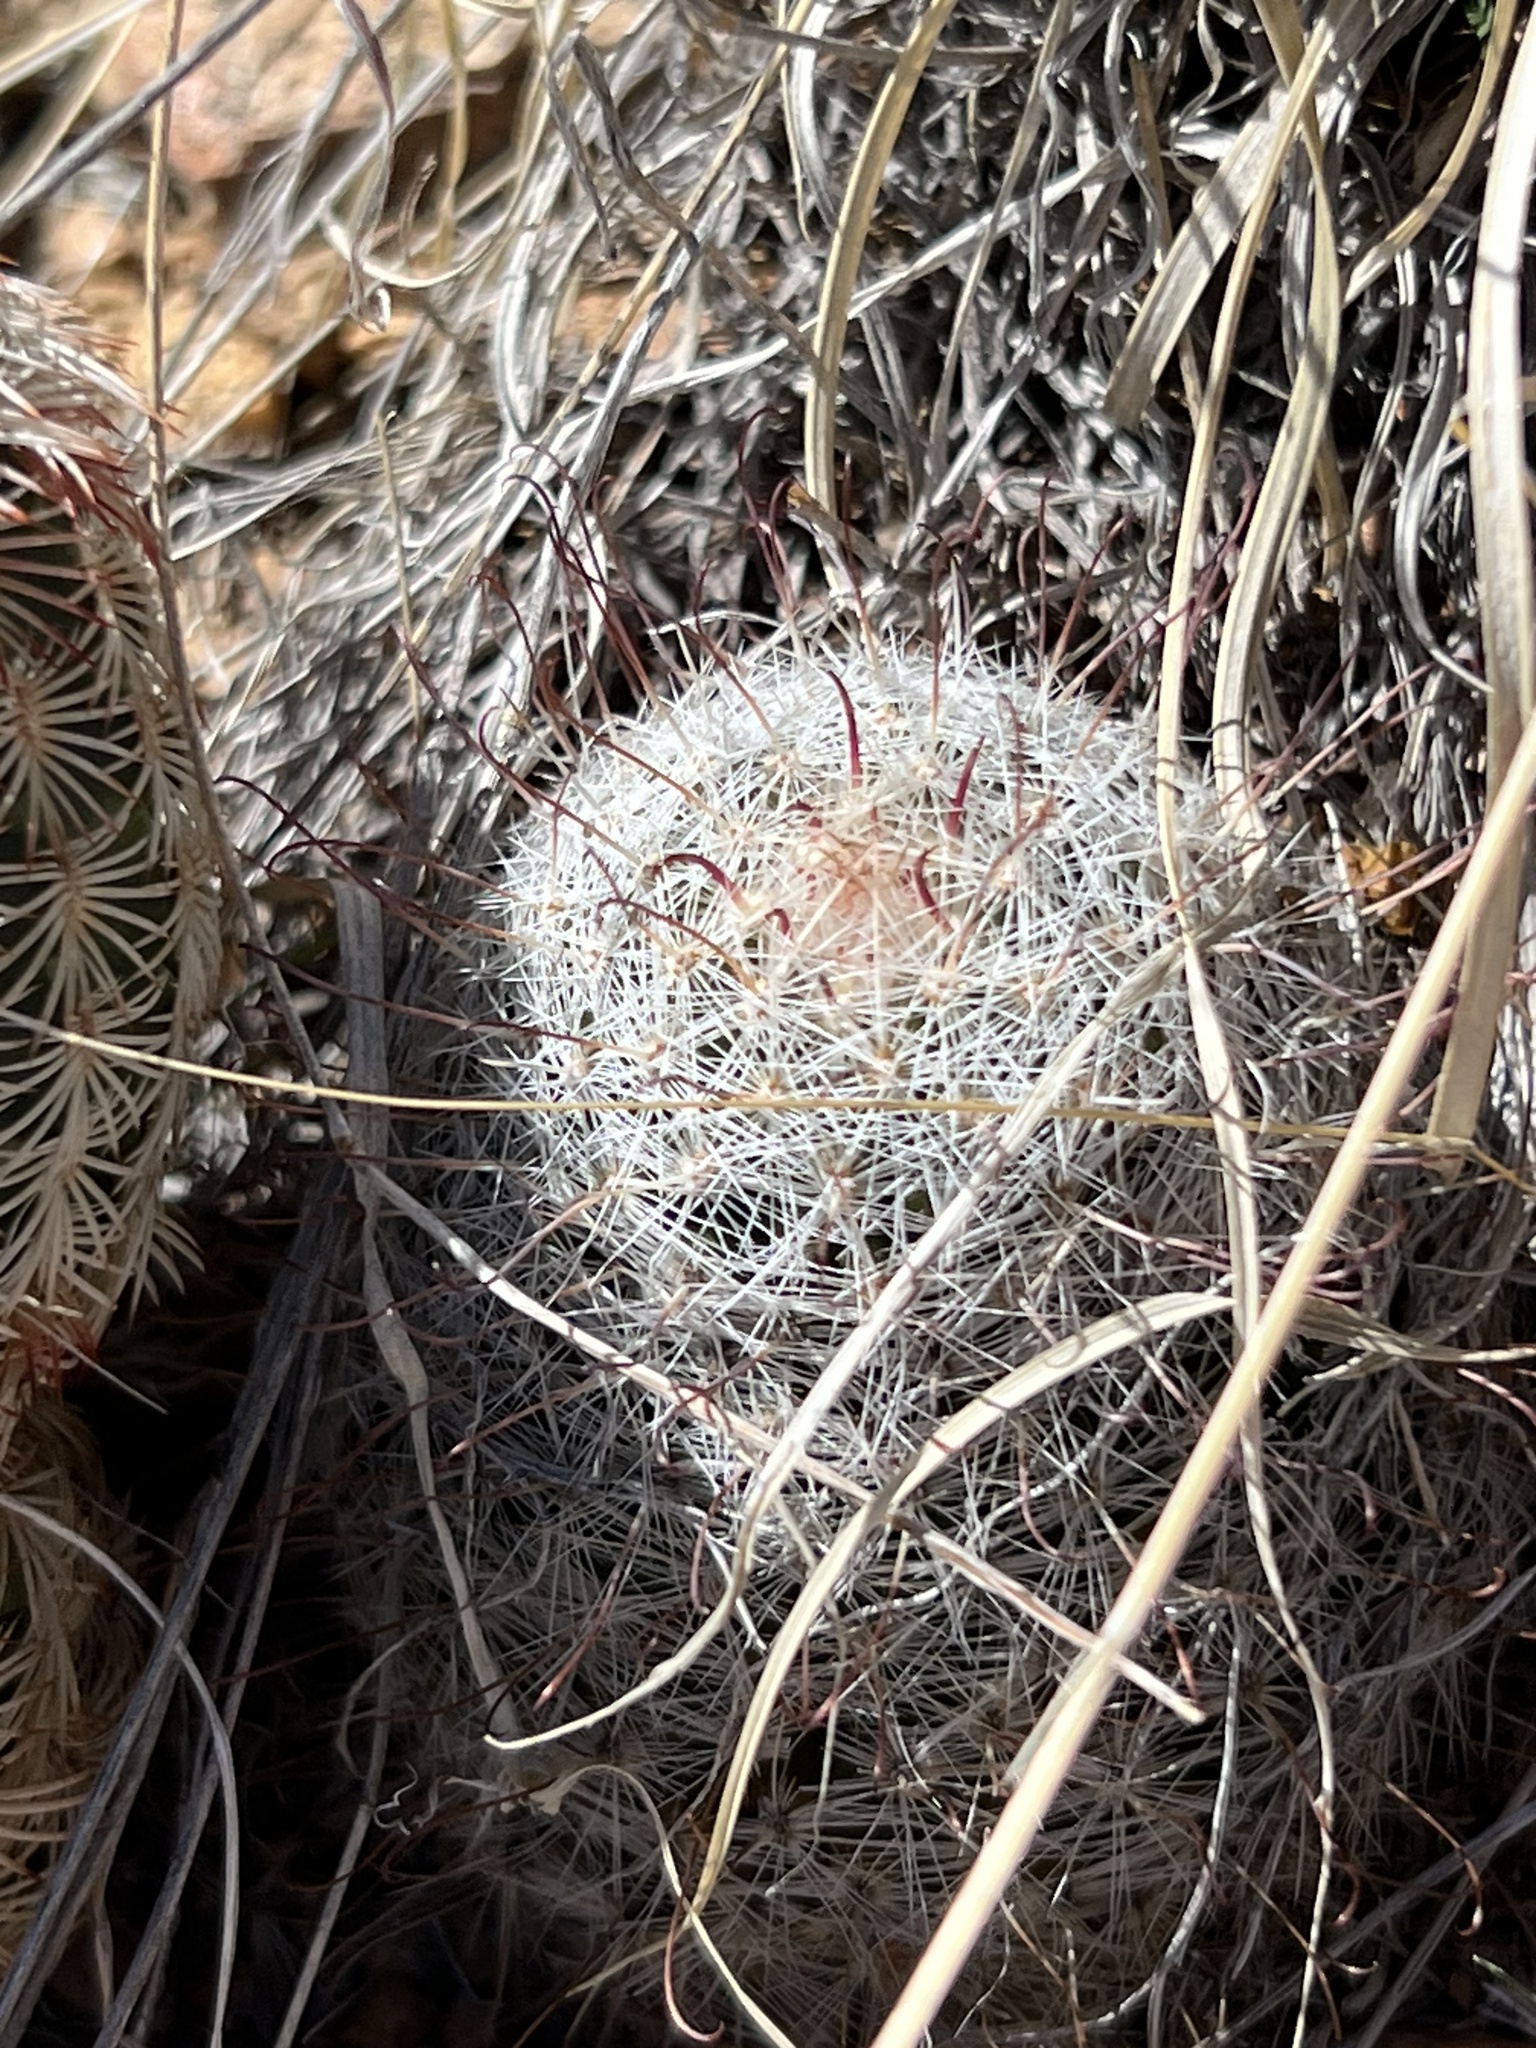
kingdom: Plantae
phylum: Tracheophyta
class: Magnoliopsida
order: Caryophyllales
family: Cactaceae
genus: Cochemiea
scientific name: Cochemiea grahamii
